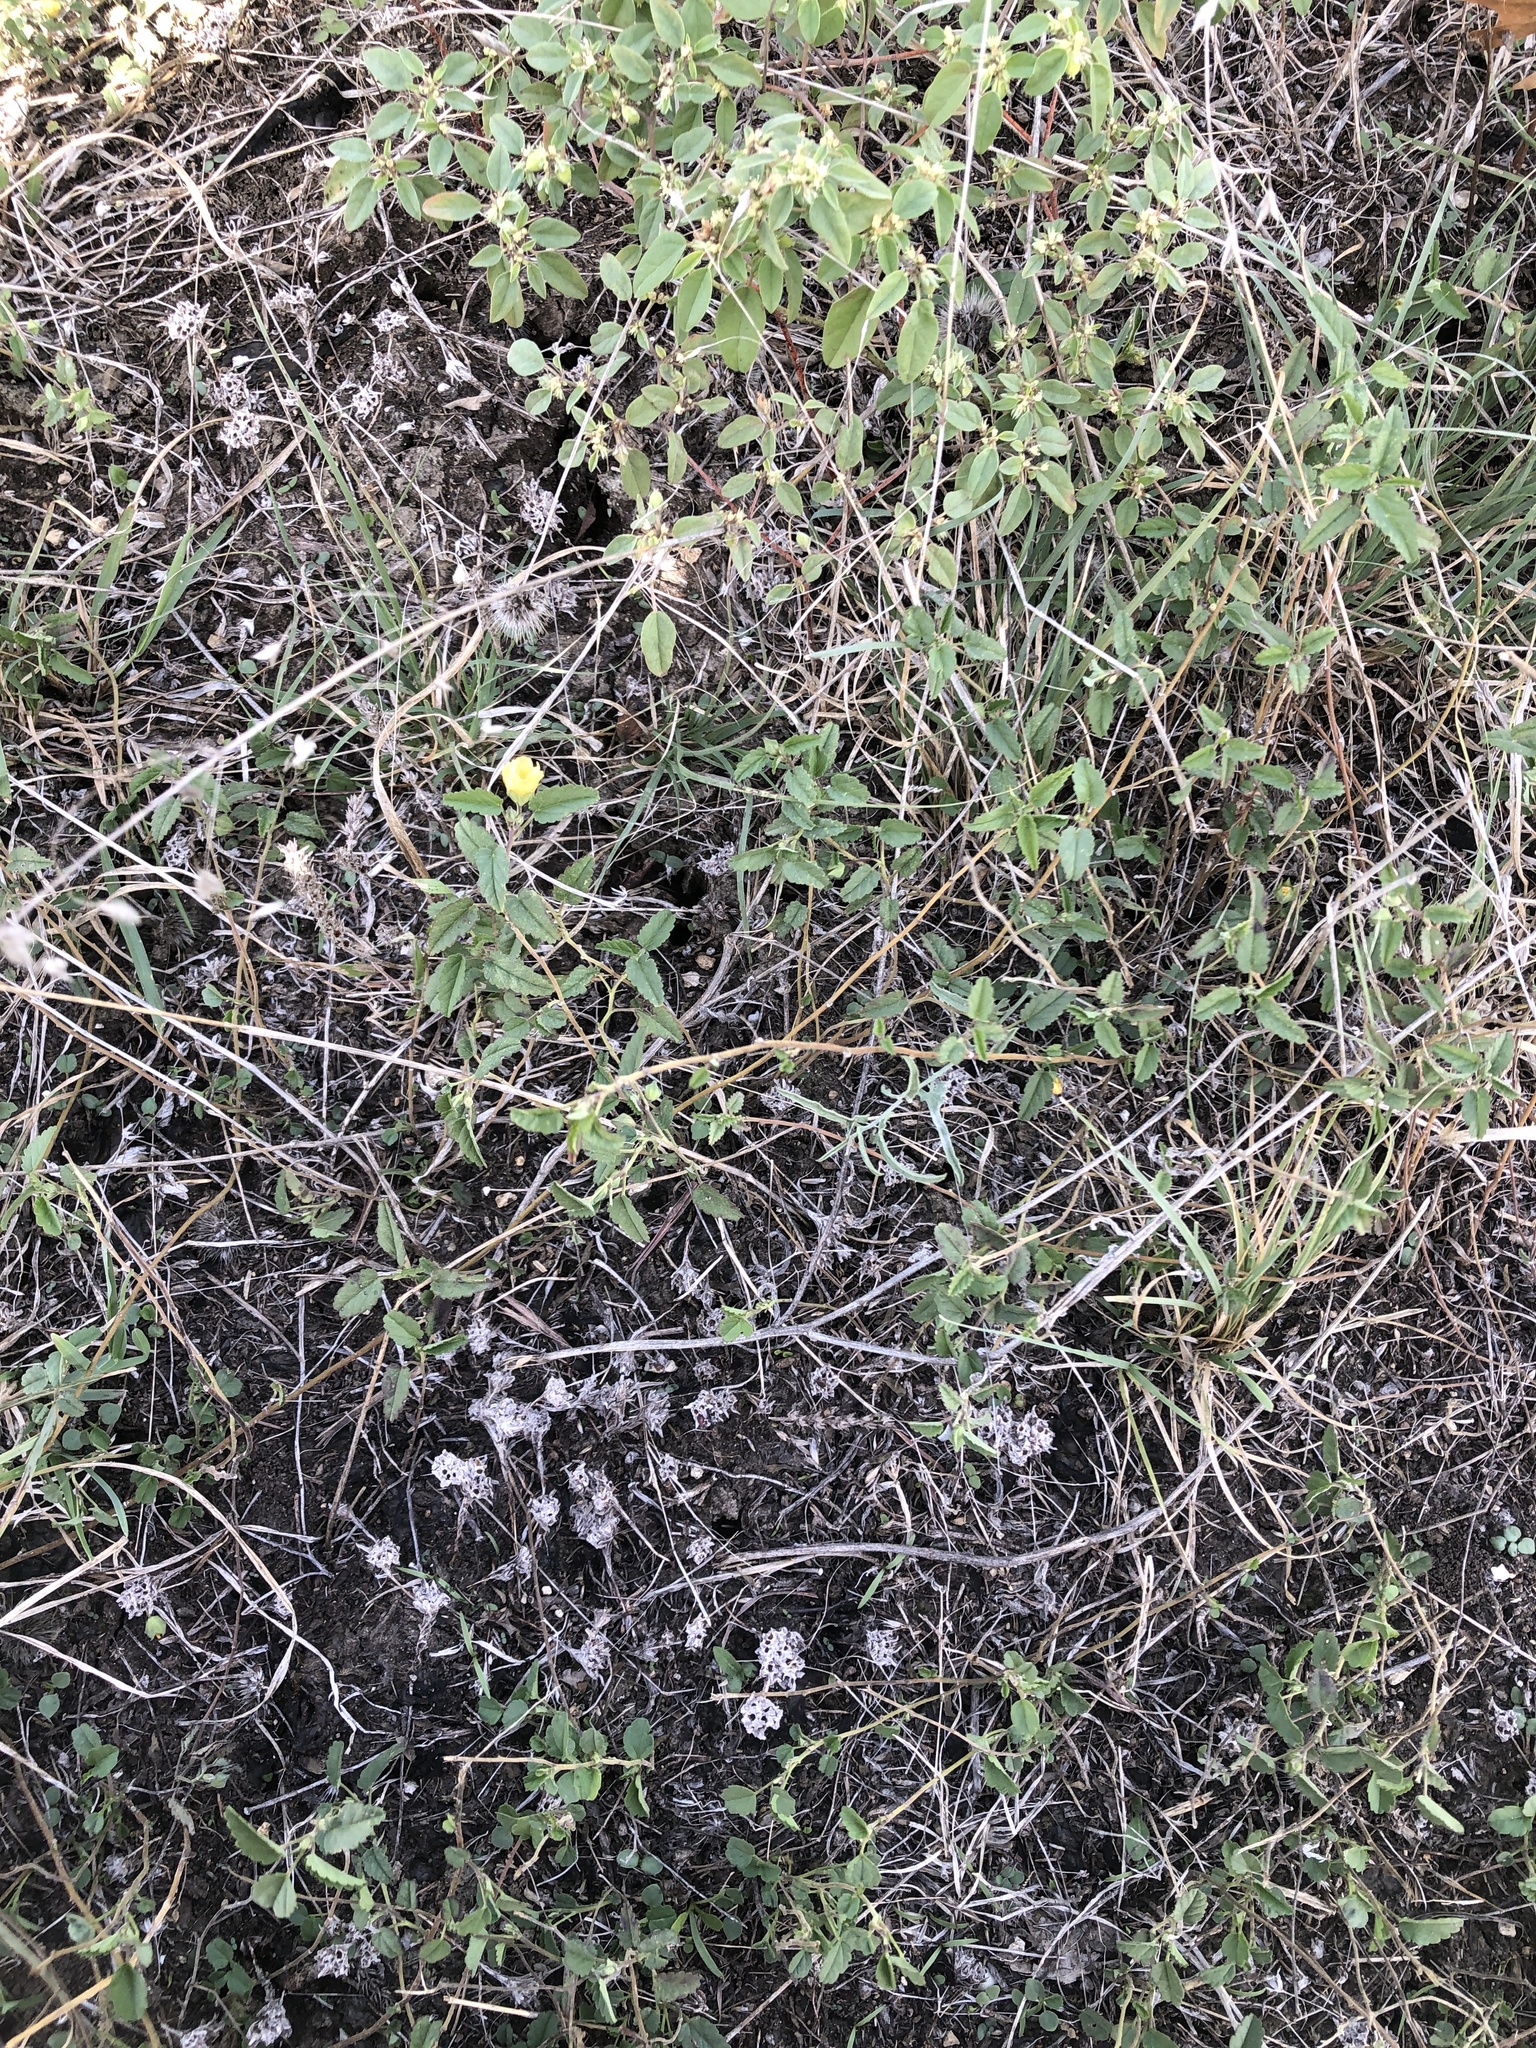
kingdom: Plantae
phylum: Tracheophyta
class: Magnoliopsida
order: Malvales
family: Malvaceae
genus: Sida
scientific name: Sida abutilifolia
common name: Spreading fanpetals
